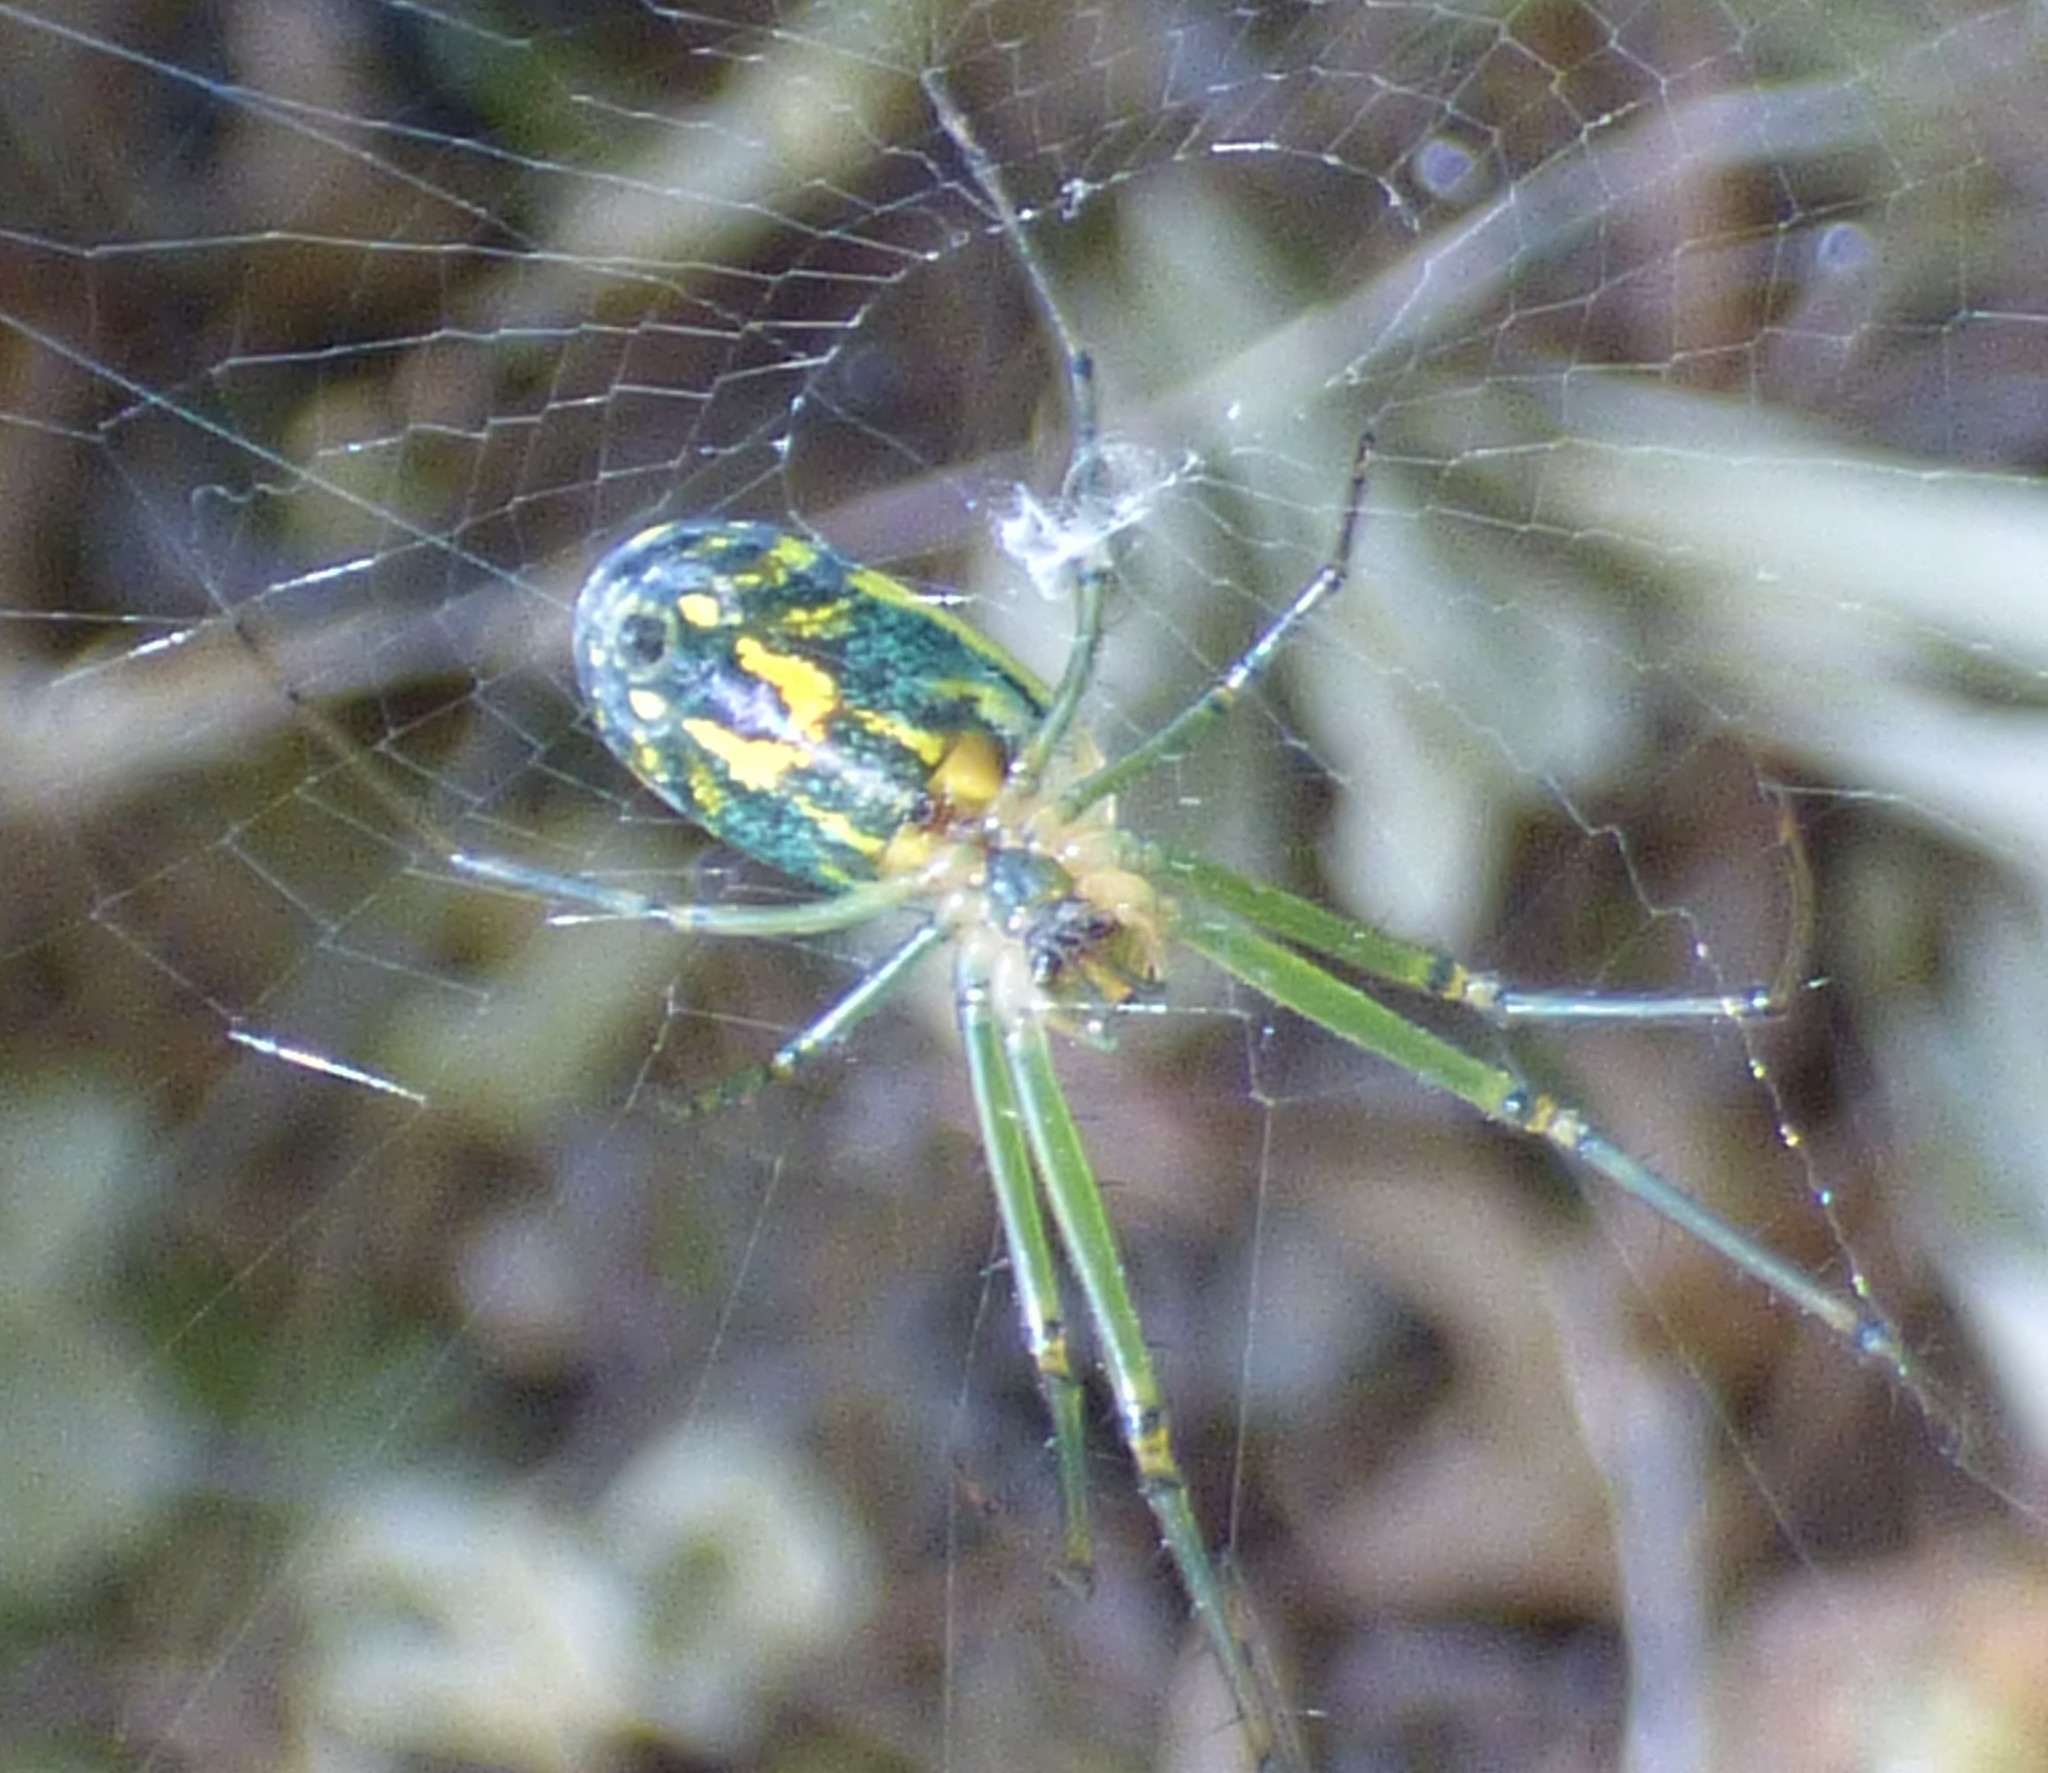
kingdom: Animalia
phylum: Arthropoda
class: Arachnida
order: Araneae
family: Tetragnathidae
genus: Leucauge
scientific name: Leucauge venusta
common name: Longjawed orb weavers
